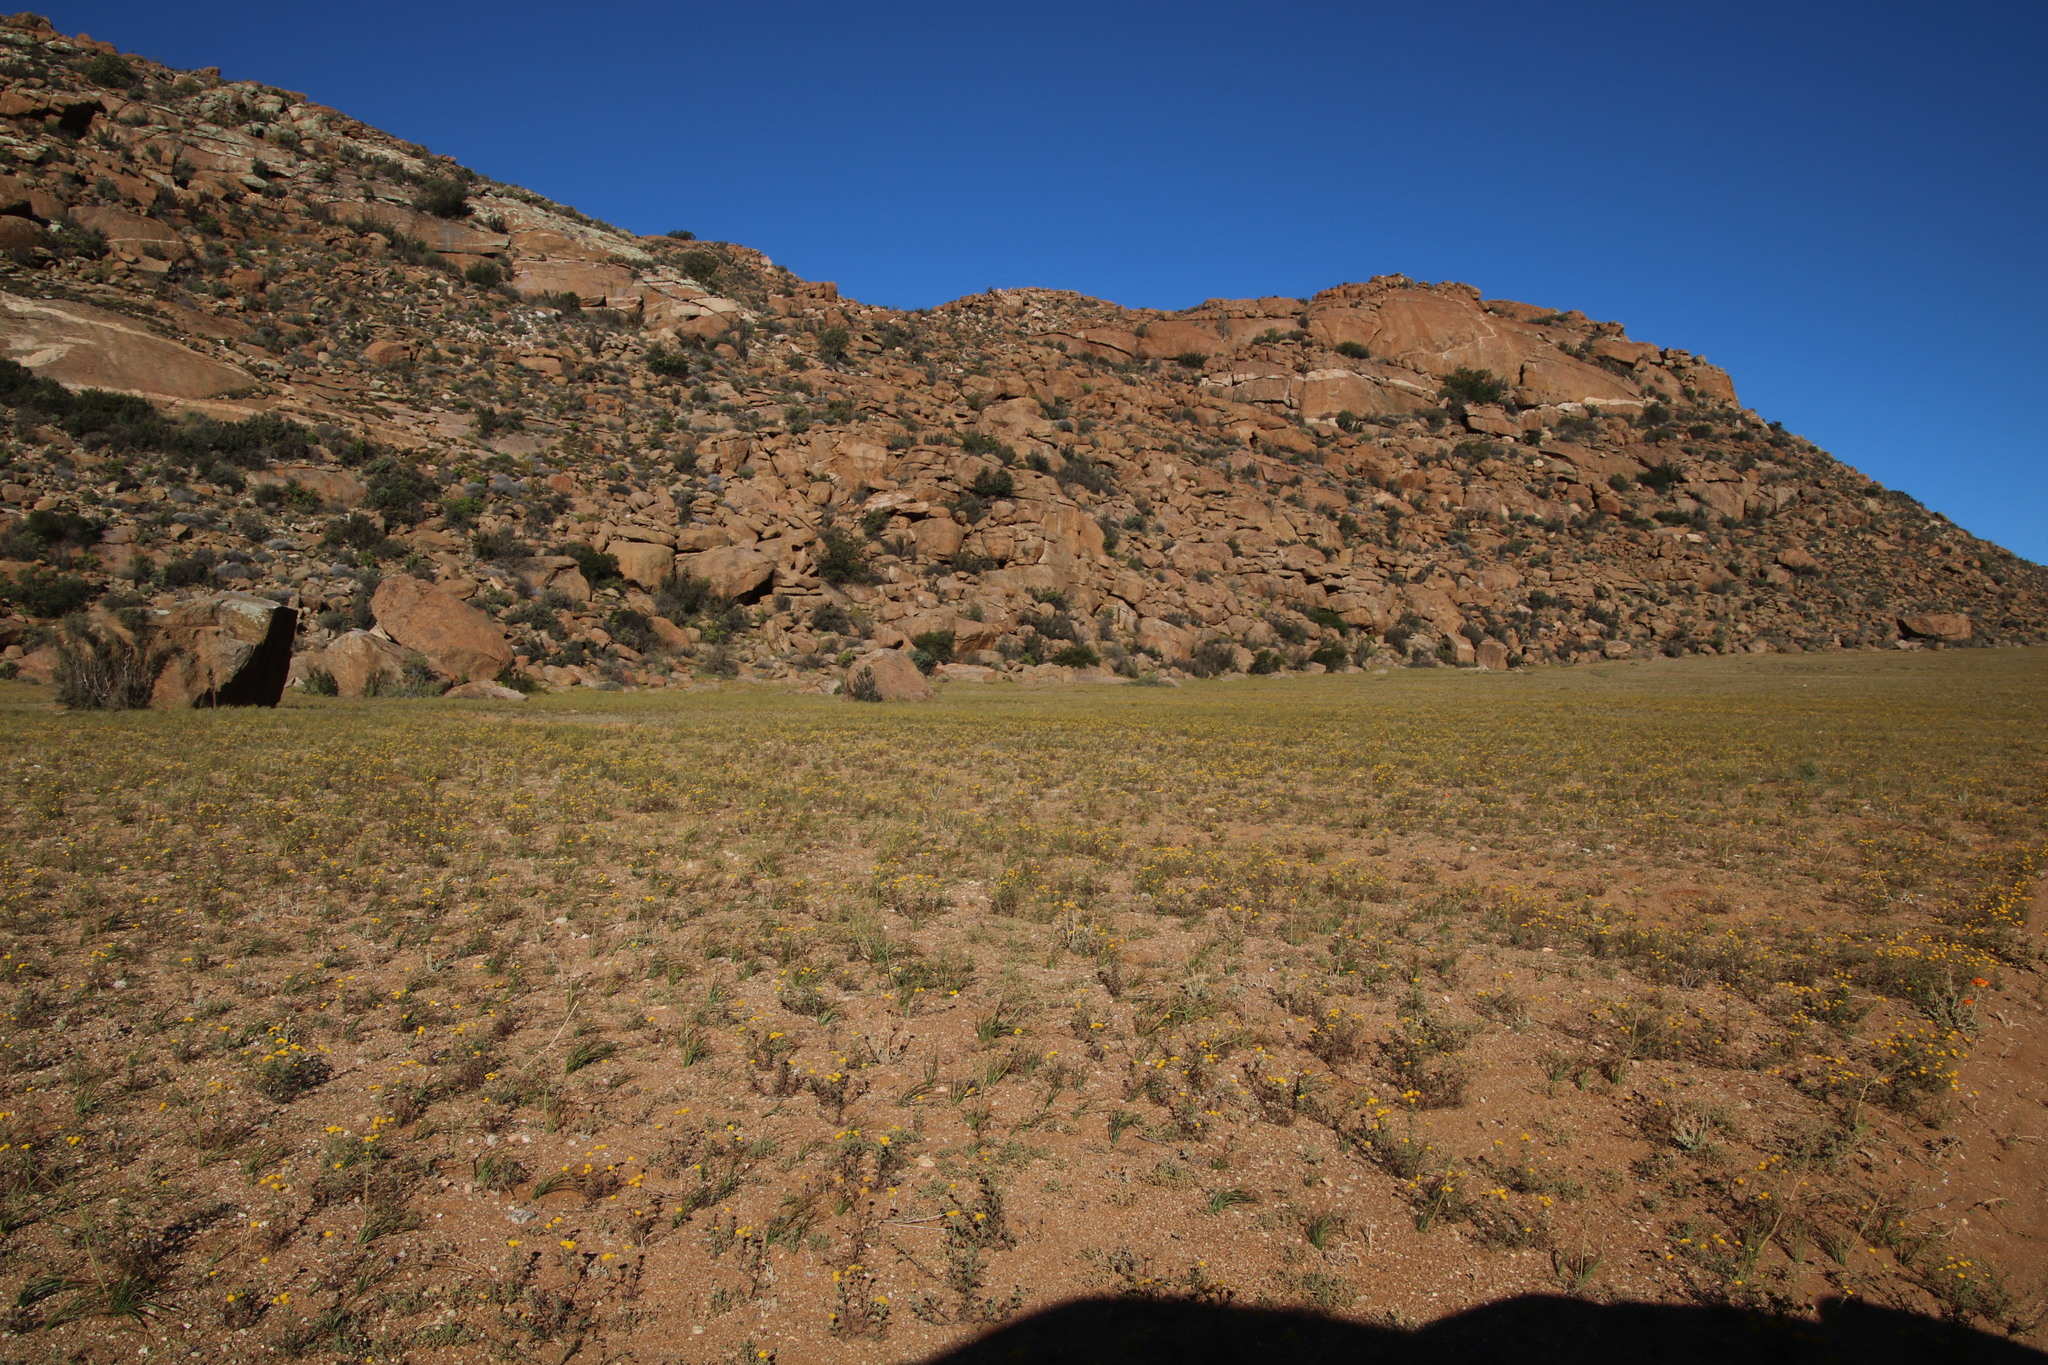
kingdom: Plantae
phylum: Tracheophyta
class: Magnoliopsida
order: Asterales
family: Asteraceae
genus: Oncosiphon
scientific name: Oncosiphon grandiflorus
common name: Swollen-flowered maywood
